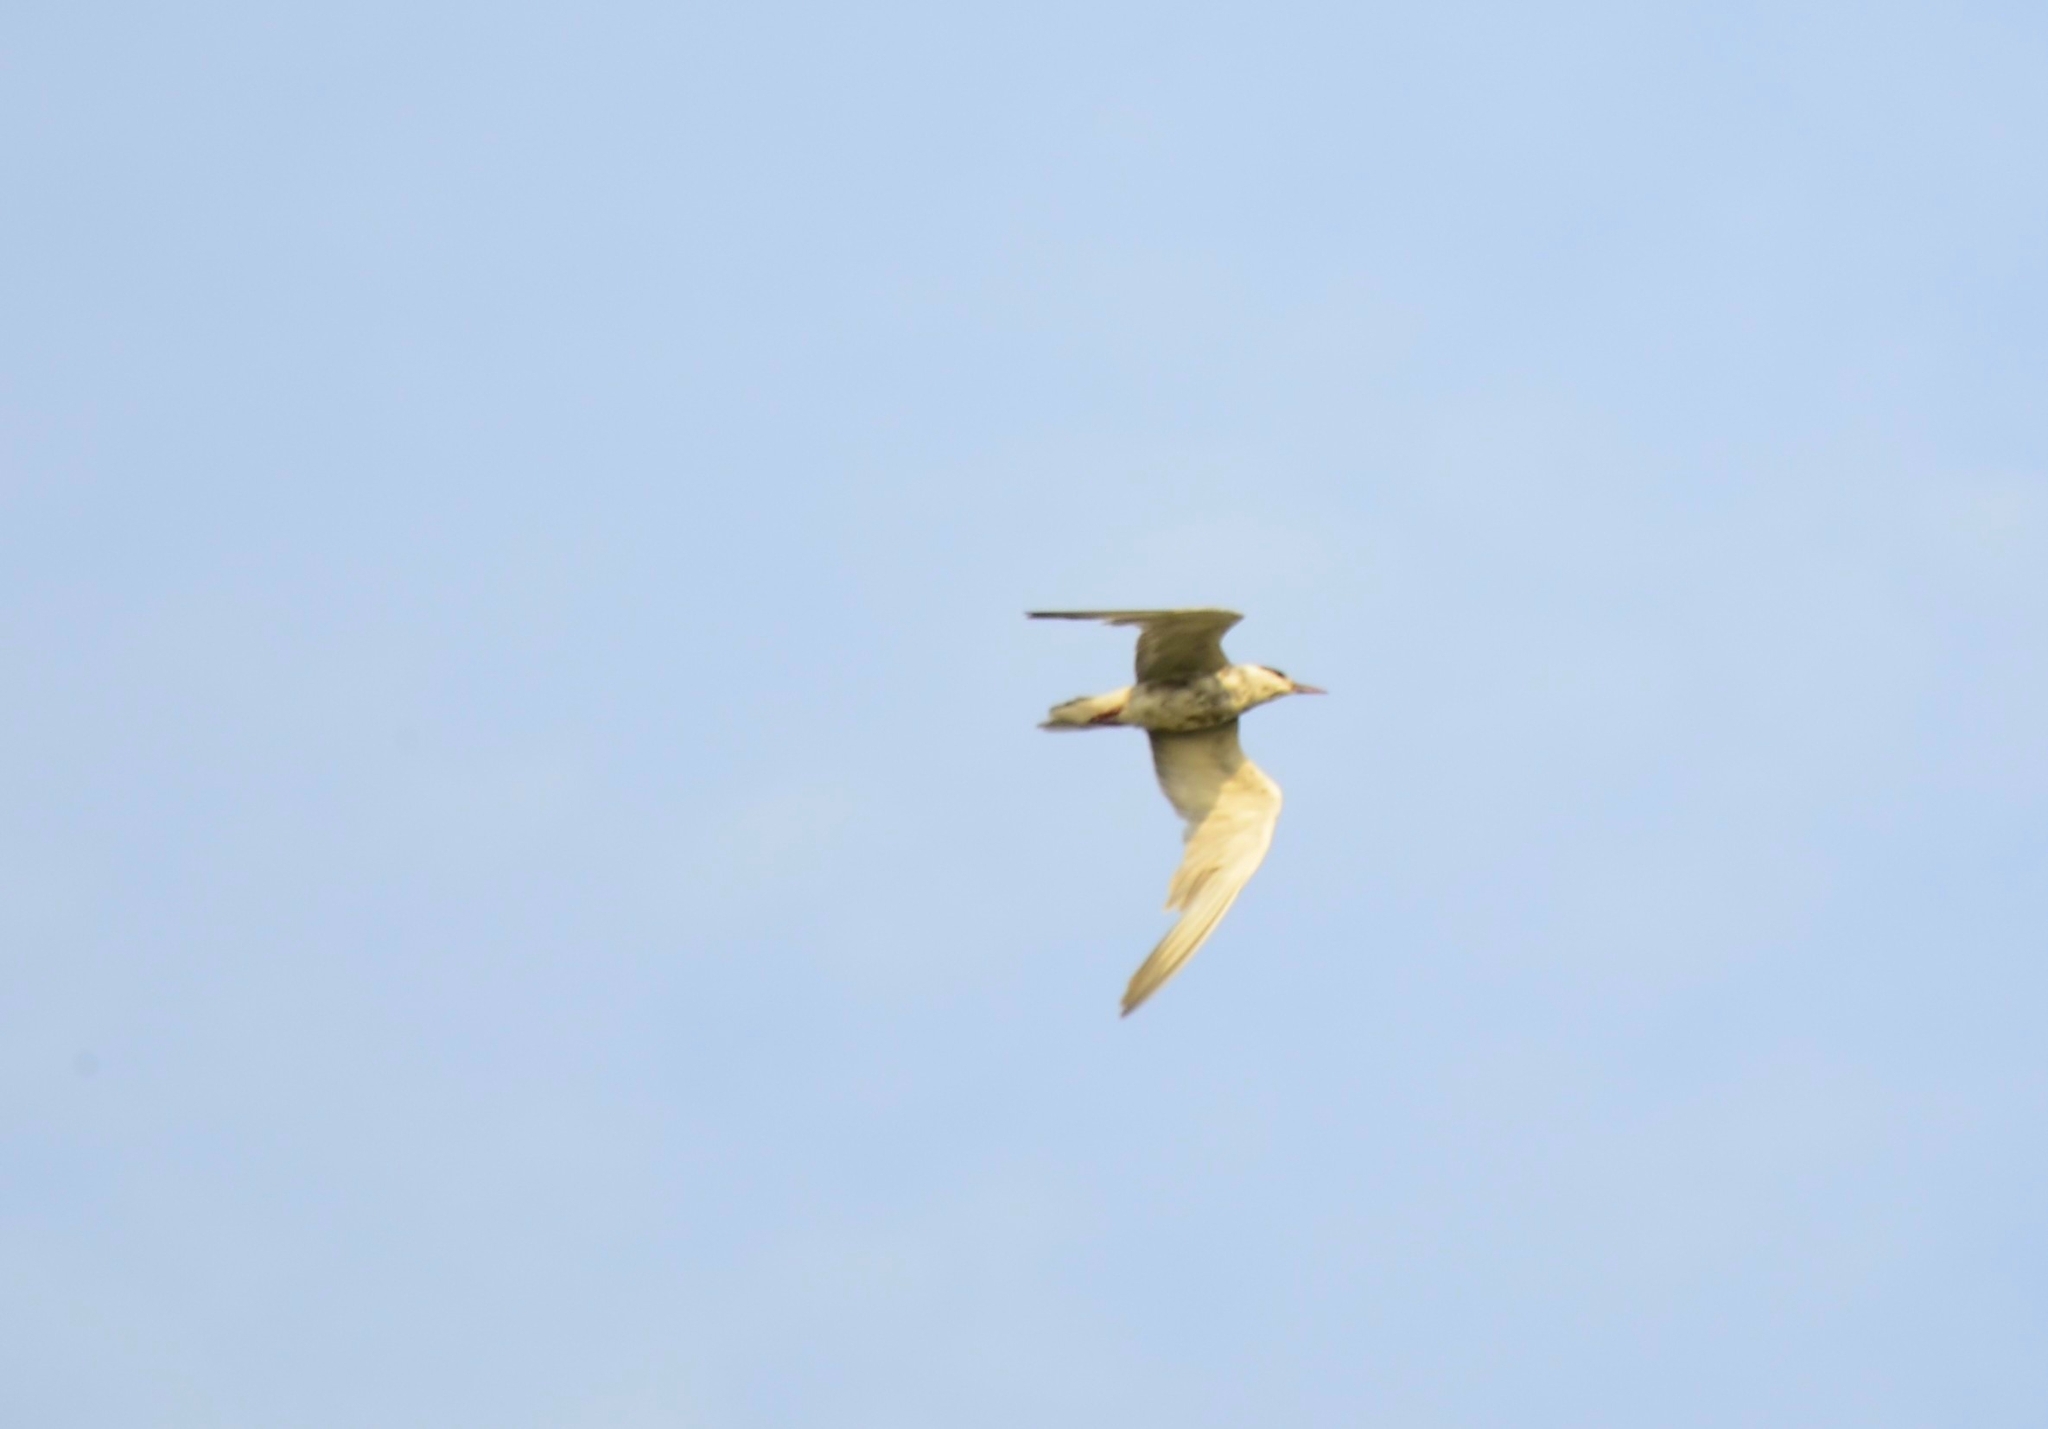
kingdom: Animalia
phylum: Chordata
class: Aves
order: Charadriiformes
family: Laridae
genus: Chlidonias
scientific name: Chlidonias hybrida
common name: Whiskered tern
